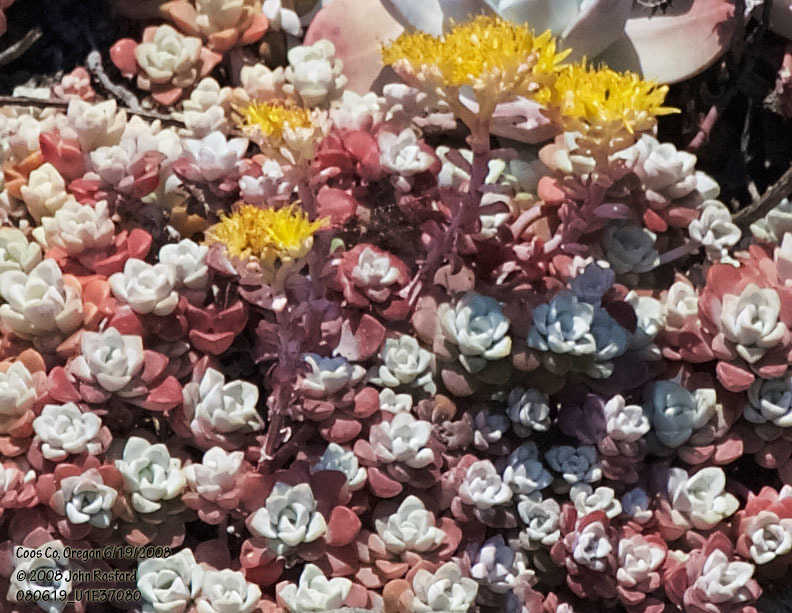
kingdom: Plantae
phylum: Tracheophyta
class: Magnoliopsida
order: Saxifragales
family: Crassulaceae
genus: Sedum
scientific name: Sedum spathulifolium
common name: Colorado stonecrop
